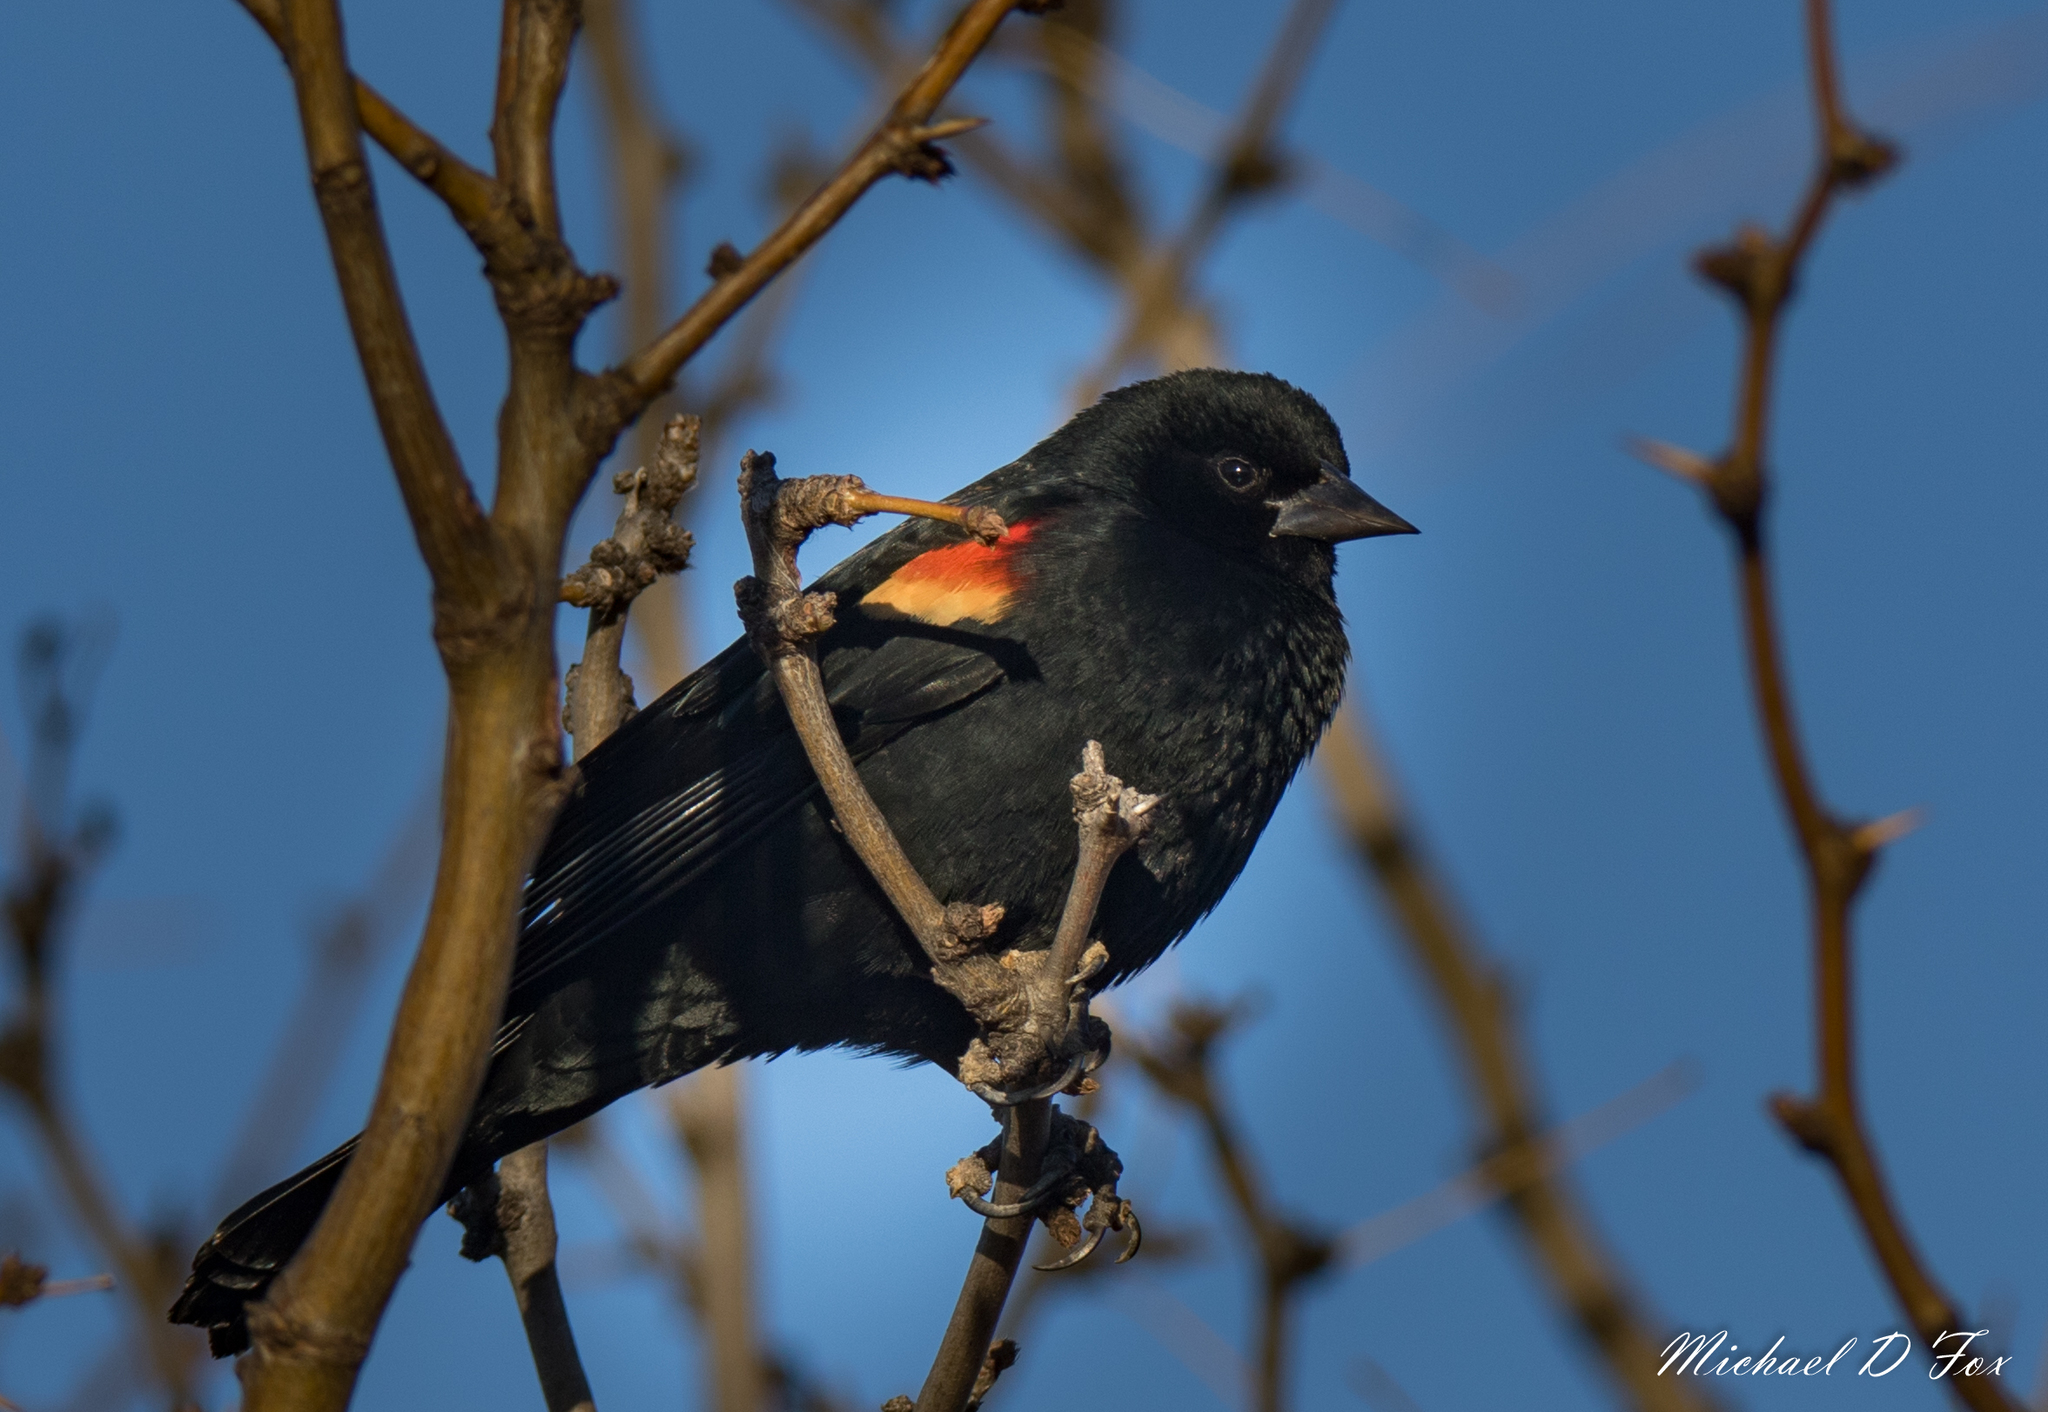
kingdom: Animalia
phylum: Chordata
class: Aves
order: Passeriformes
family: Icteridae
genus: Agelaius
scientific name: Agelaius phoeniceus
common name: Red-winged blackbird
